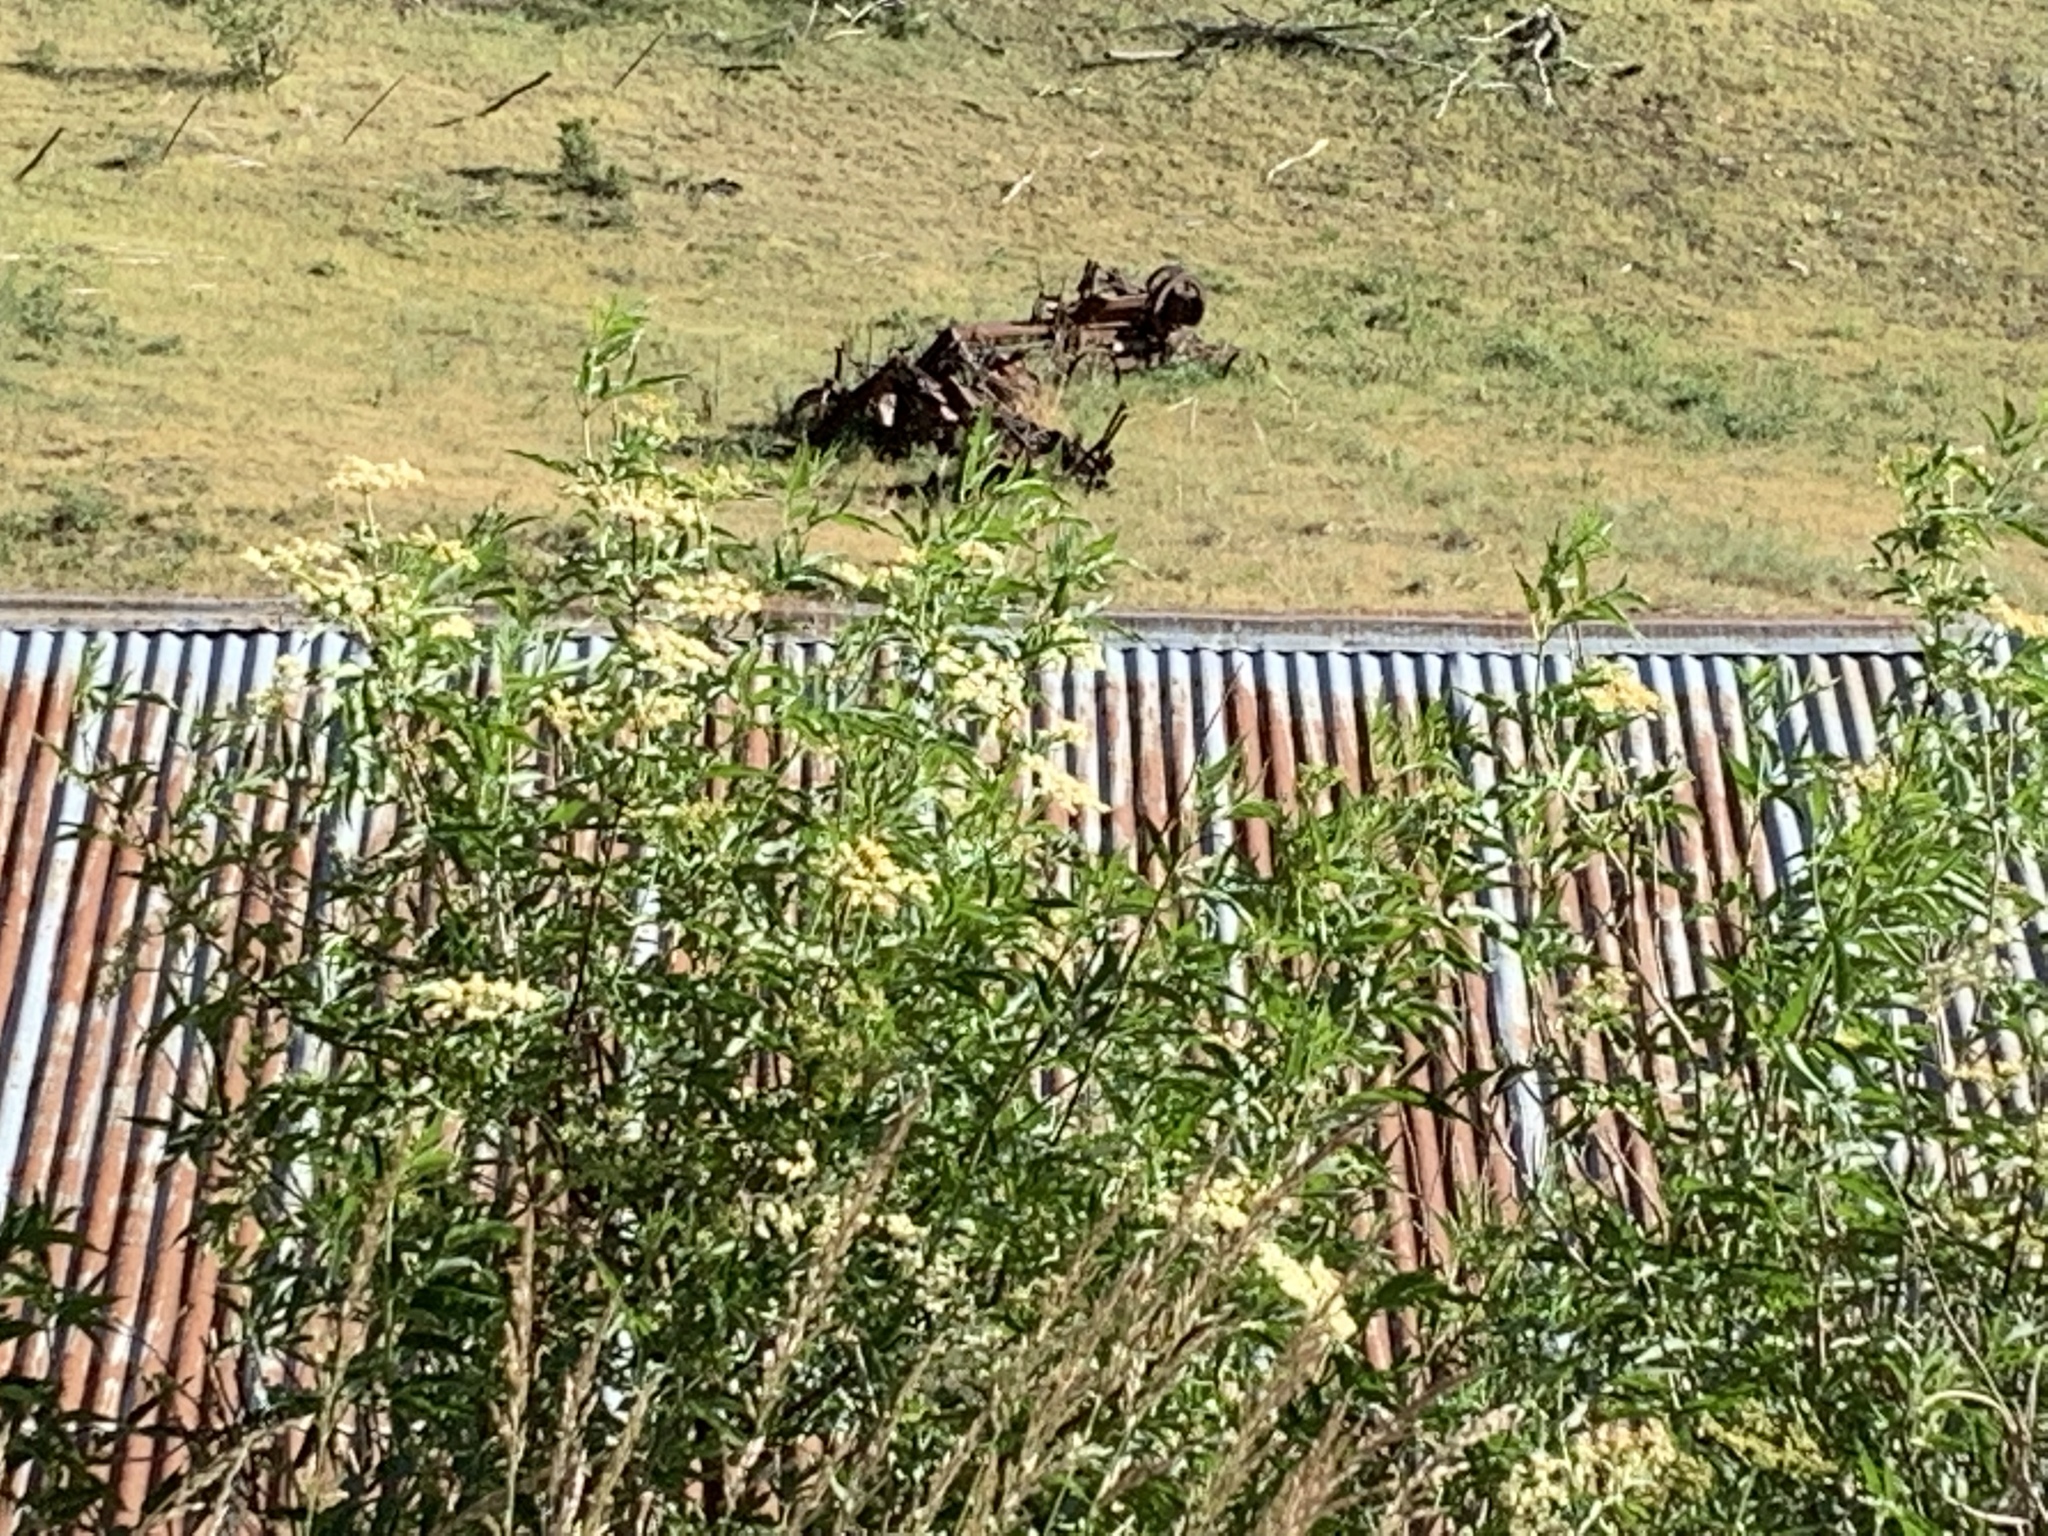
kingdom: Plantae
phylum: Tracheophyta
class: Magnoliopsida
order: Dipsacales
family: Viburnaceae
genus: Sambucus
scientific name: Sambucus cerulea
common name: Blue elder
